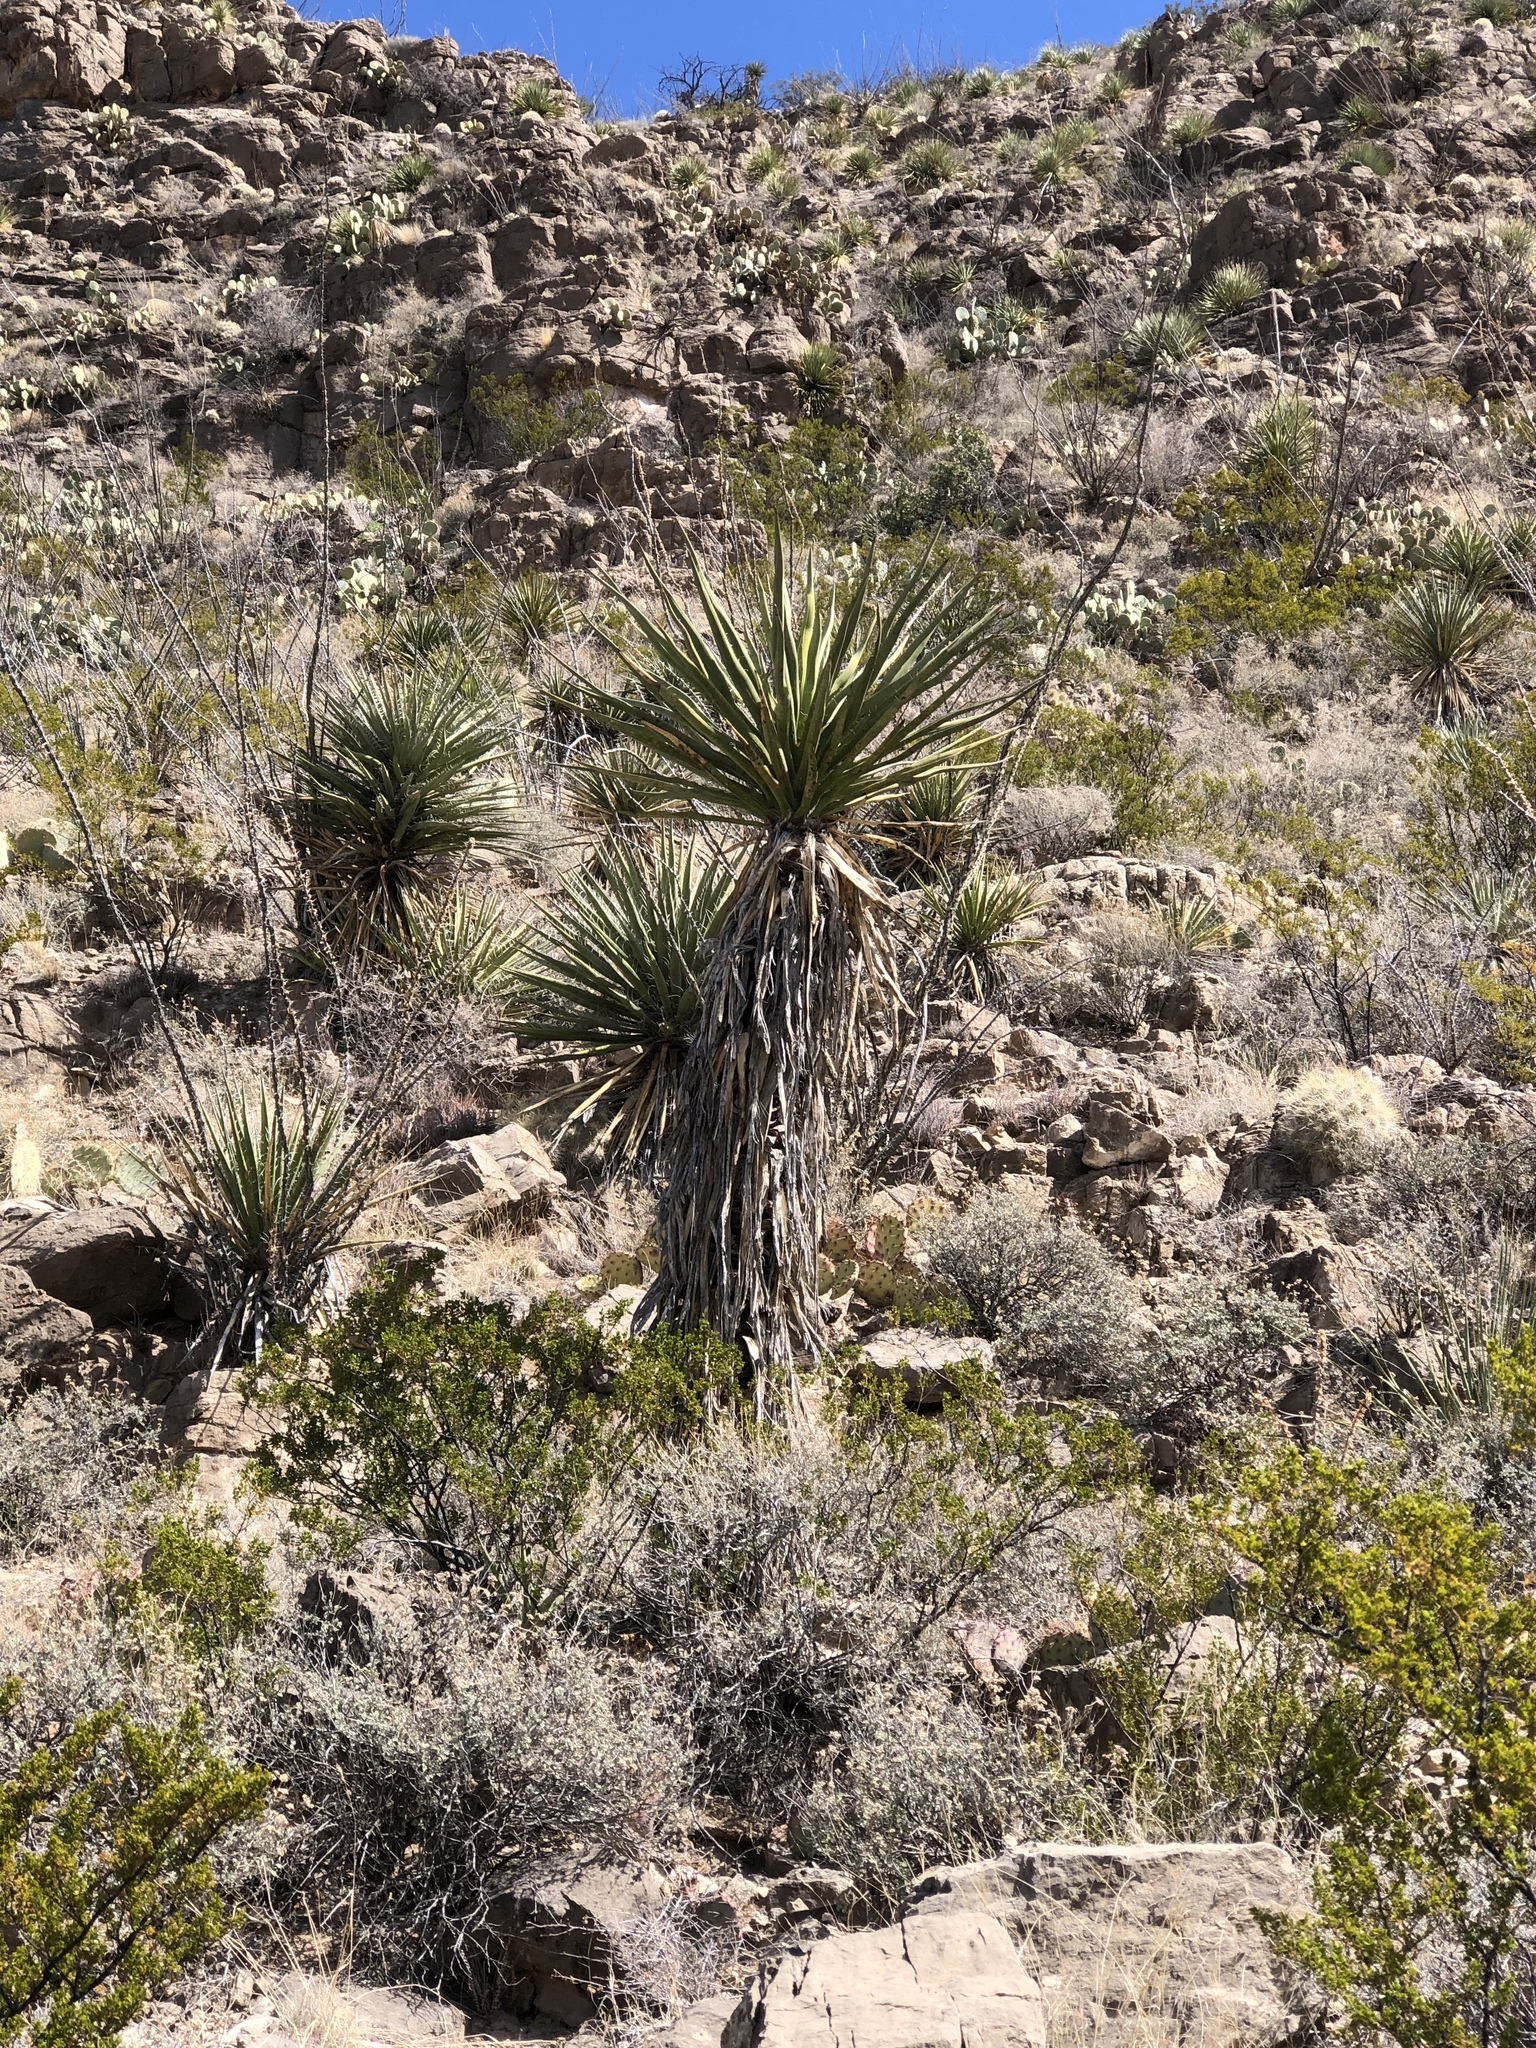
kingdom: Plantae
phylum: Tracheophyta
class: Liliopsida
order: Asparagales
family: Asparagaceae
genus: Yucca
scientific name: Yucca treculiana
